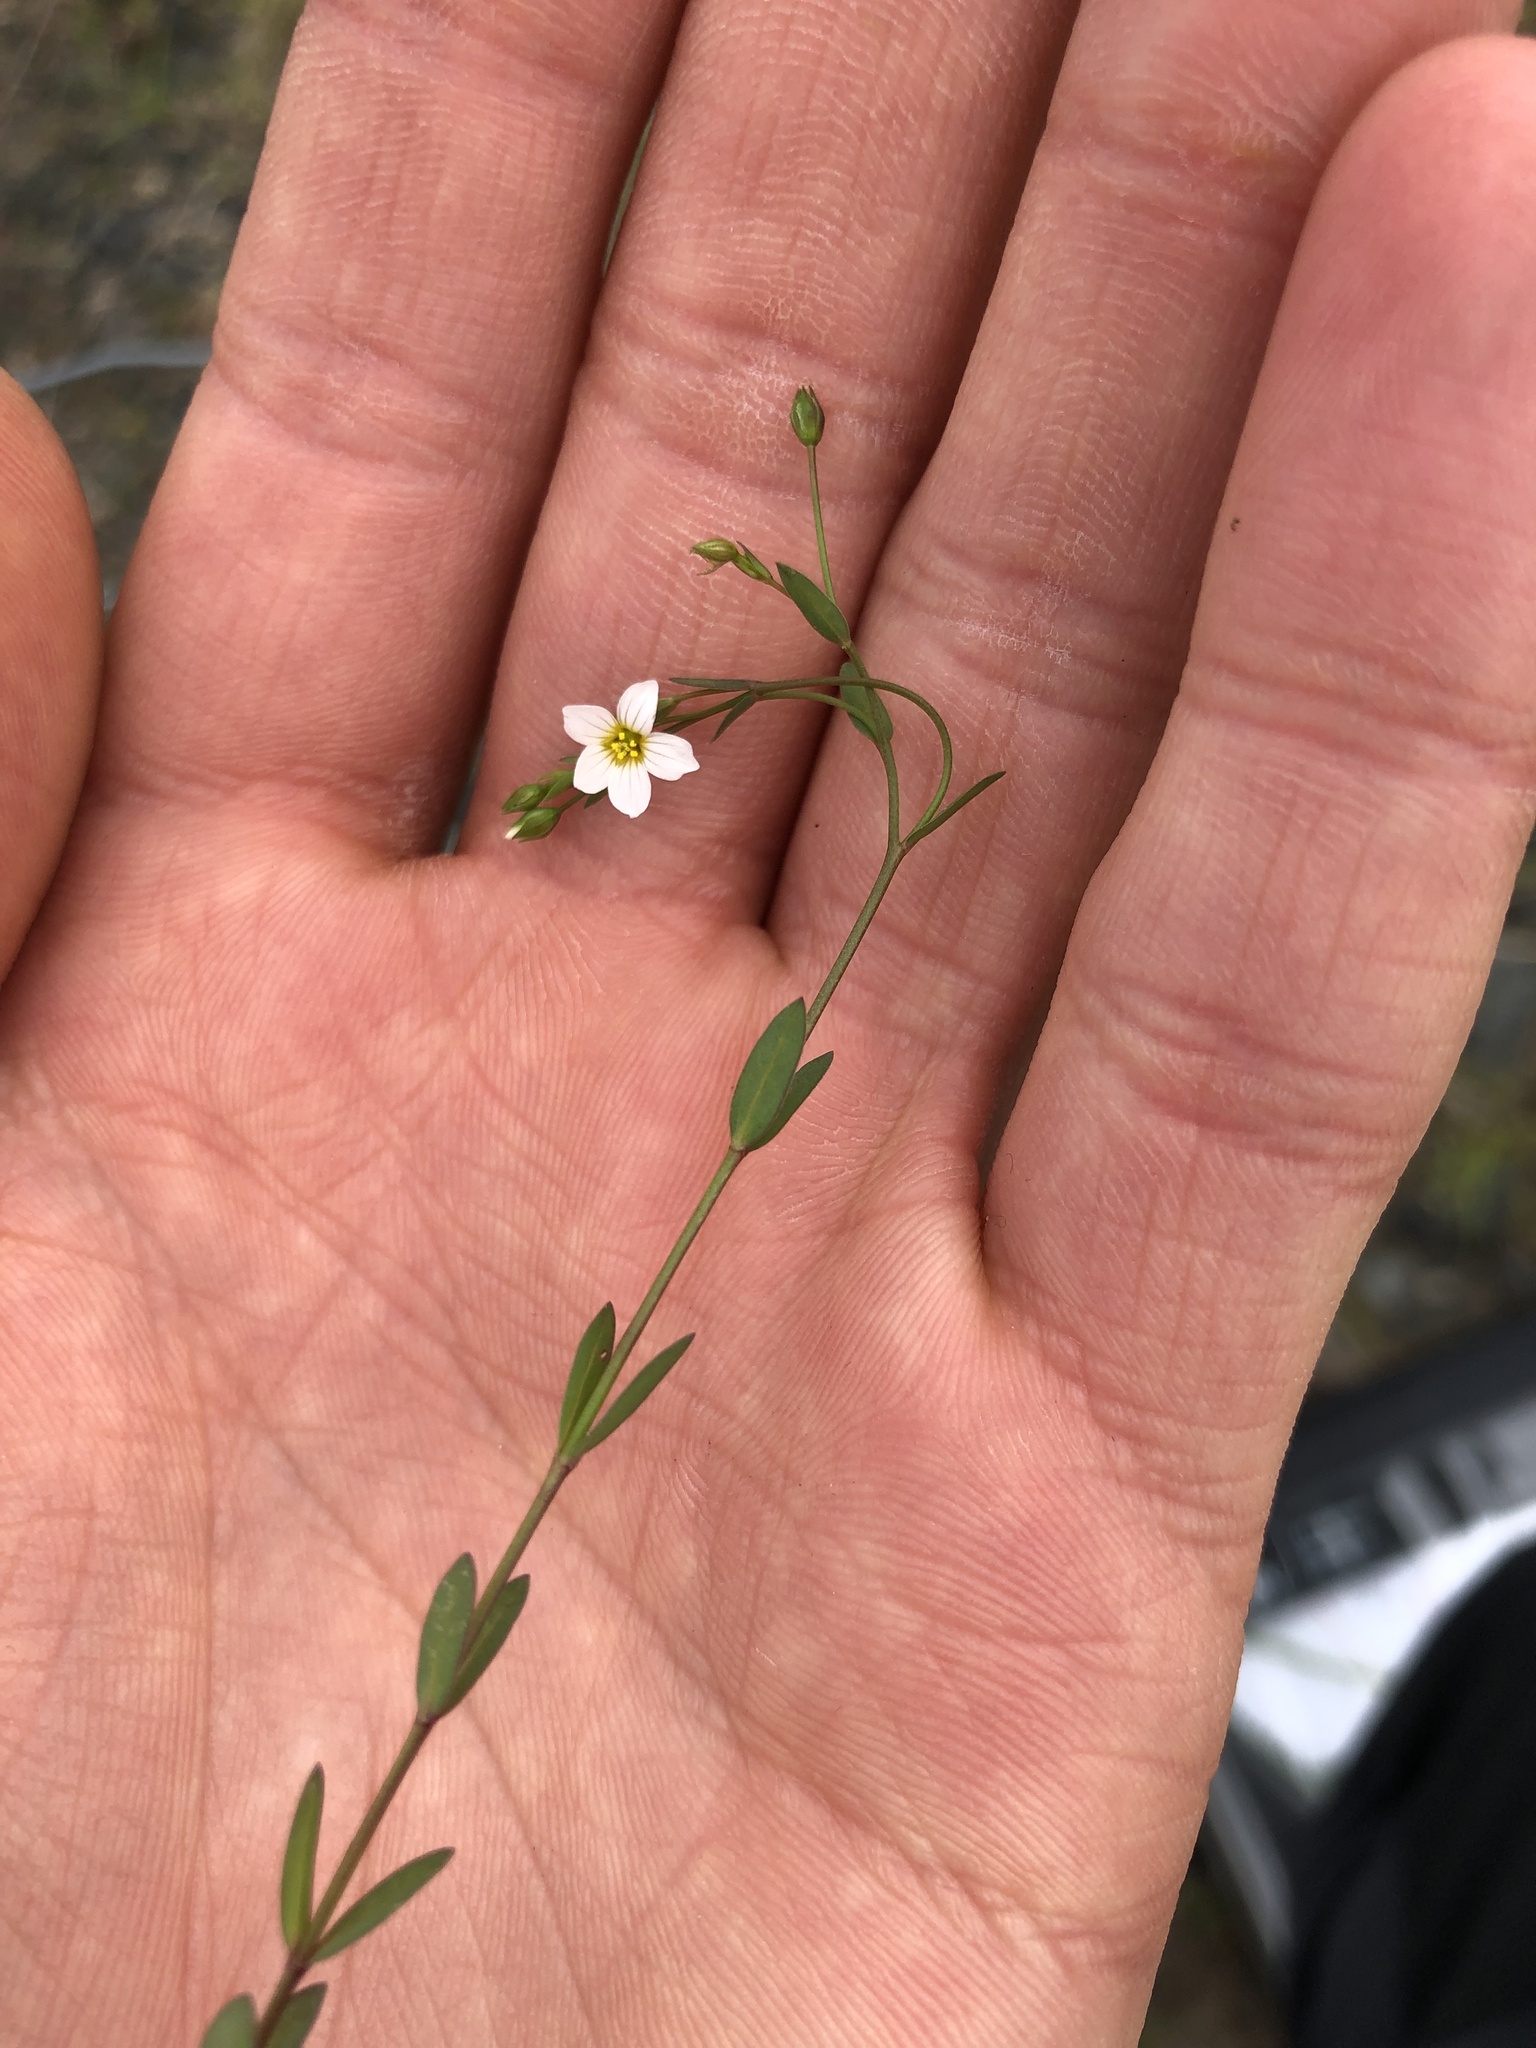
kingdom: Plantae
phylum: Tracheophyta
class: Magnoliopsida
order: Malpighiales
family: Linaceae
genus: Linum
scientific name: Linum catharticum
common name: Fairy flax
